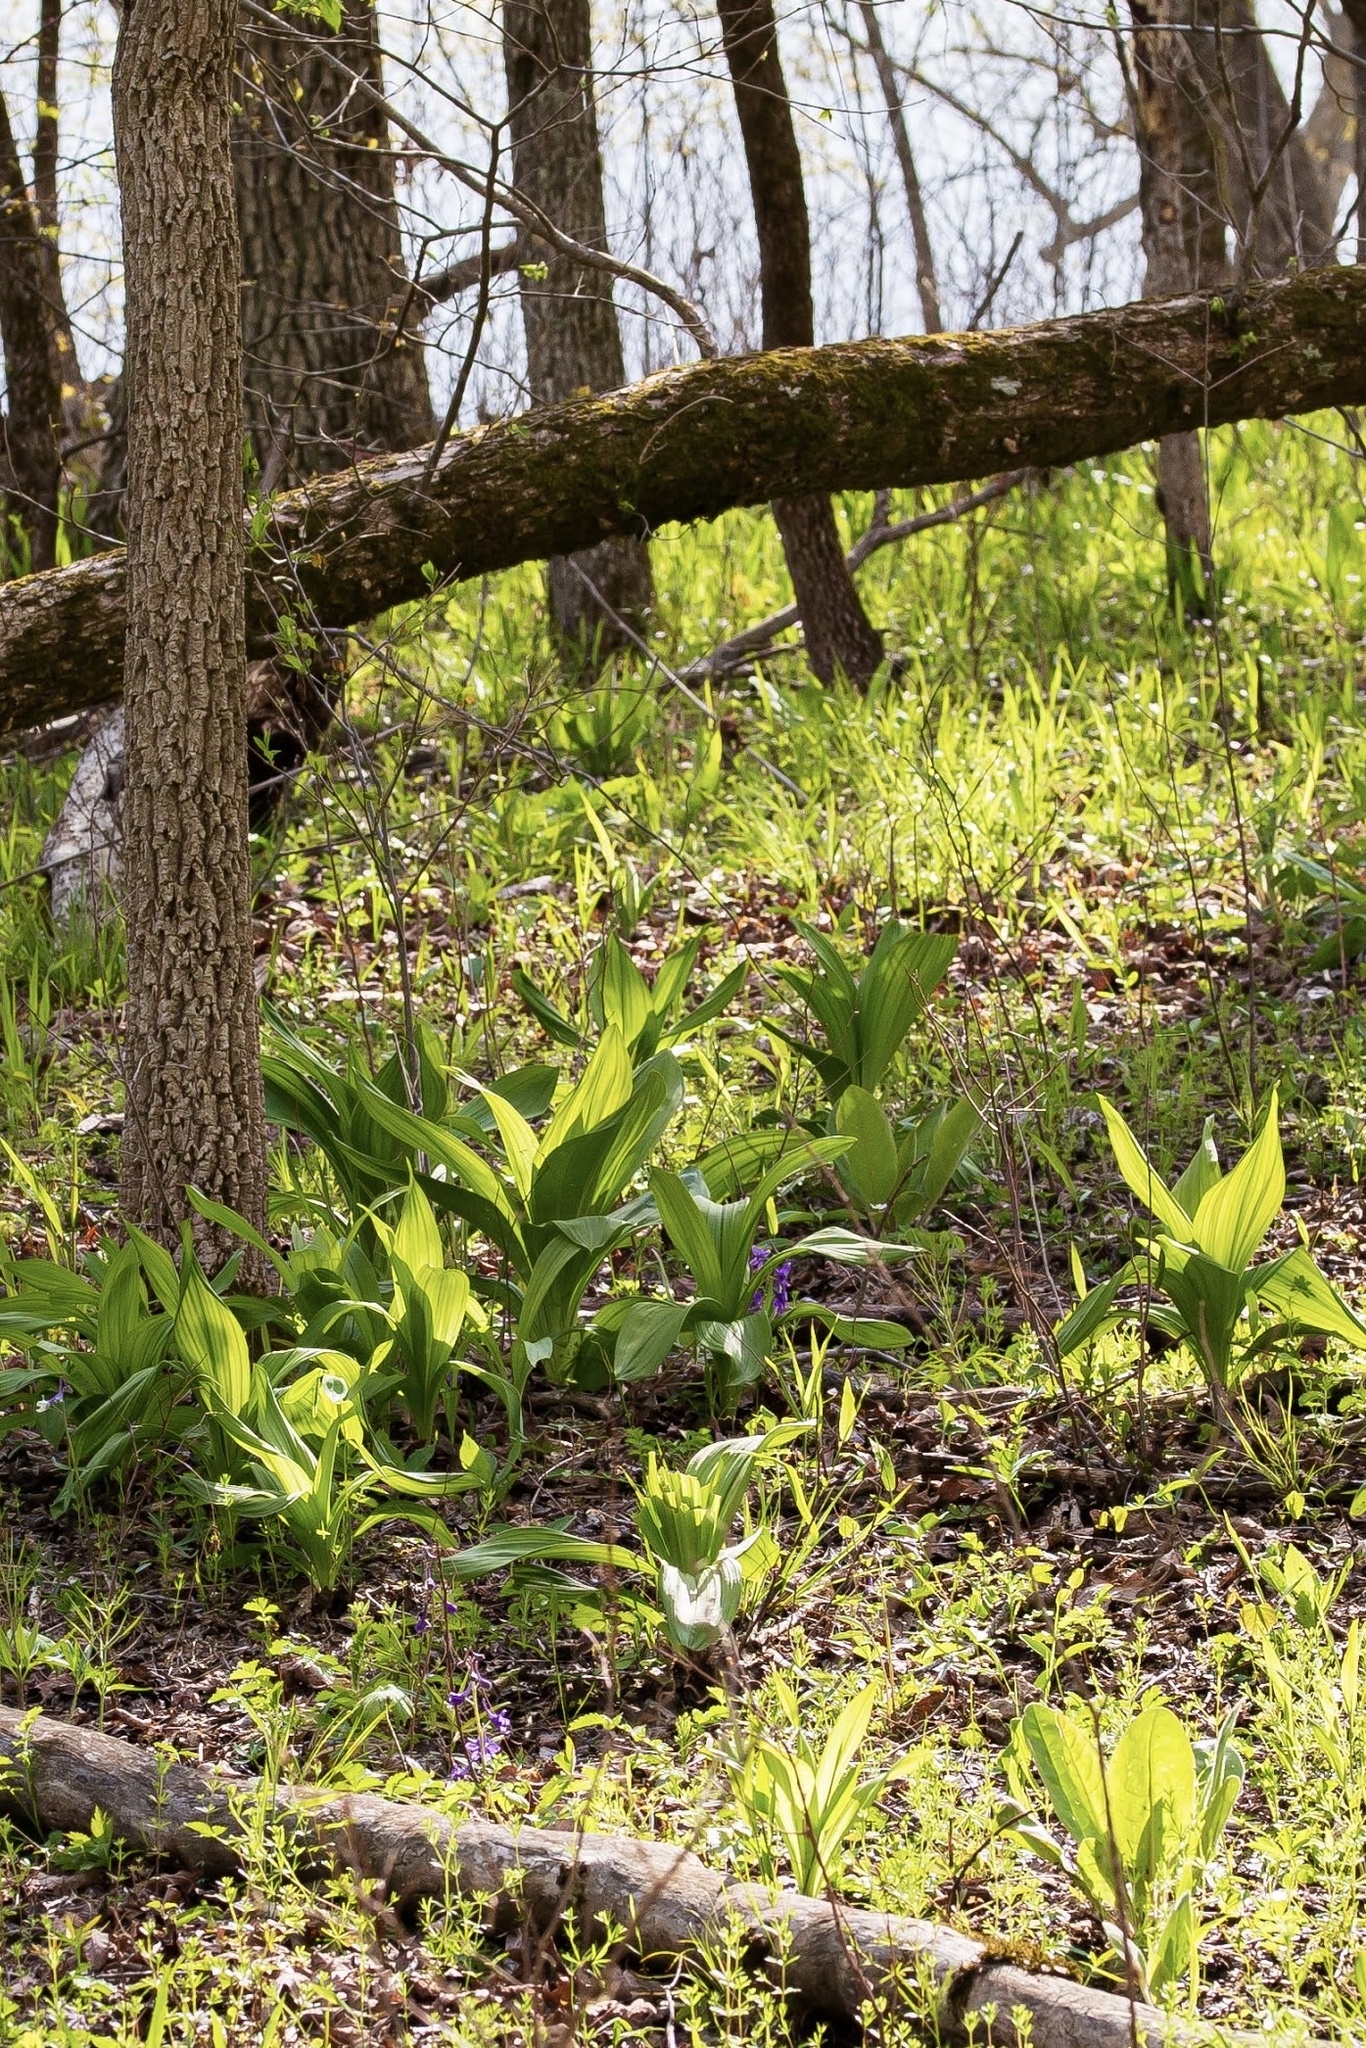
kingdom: Plantae
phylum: Tracheophyta
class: Liliopsida
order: Liliales
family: Melanthiaceae
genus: Veratrum
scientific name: Veratrum woodii
